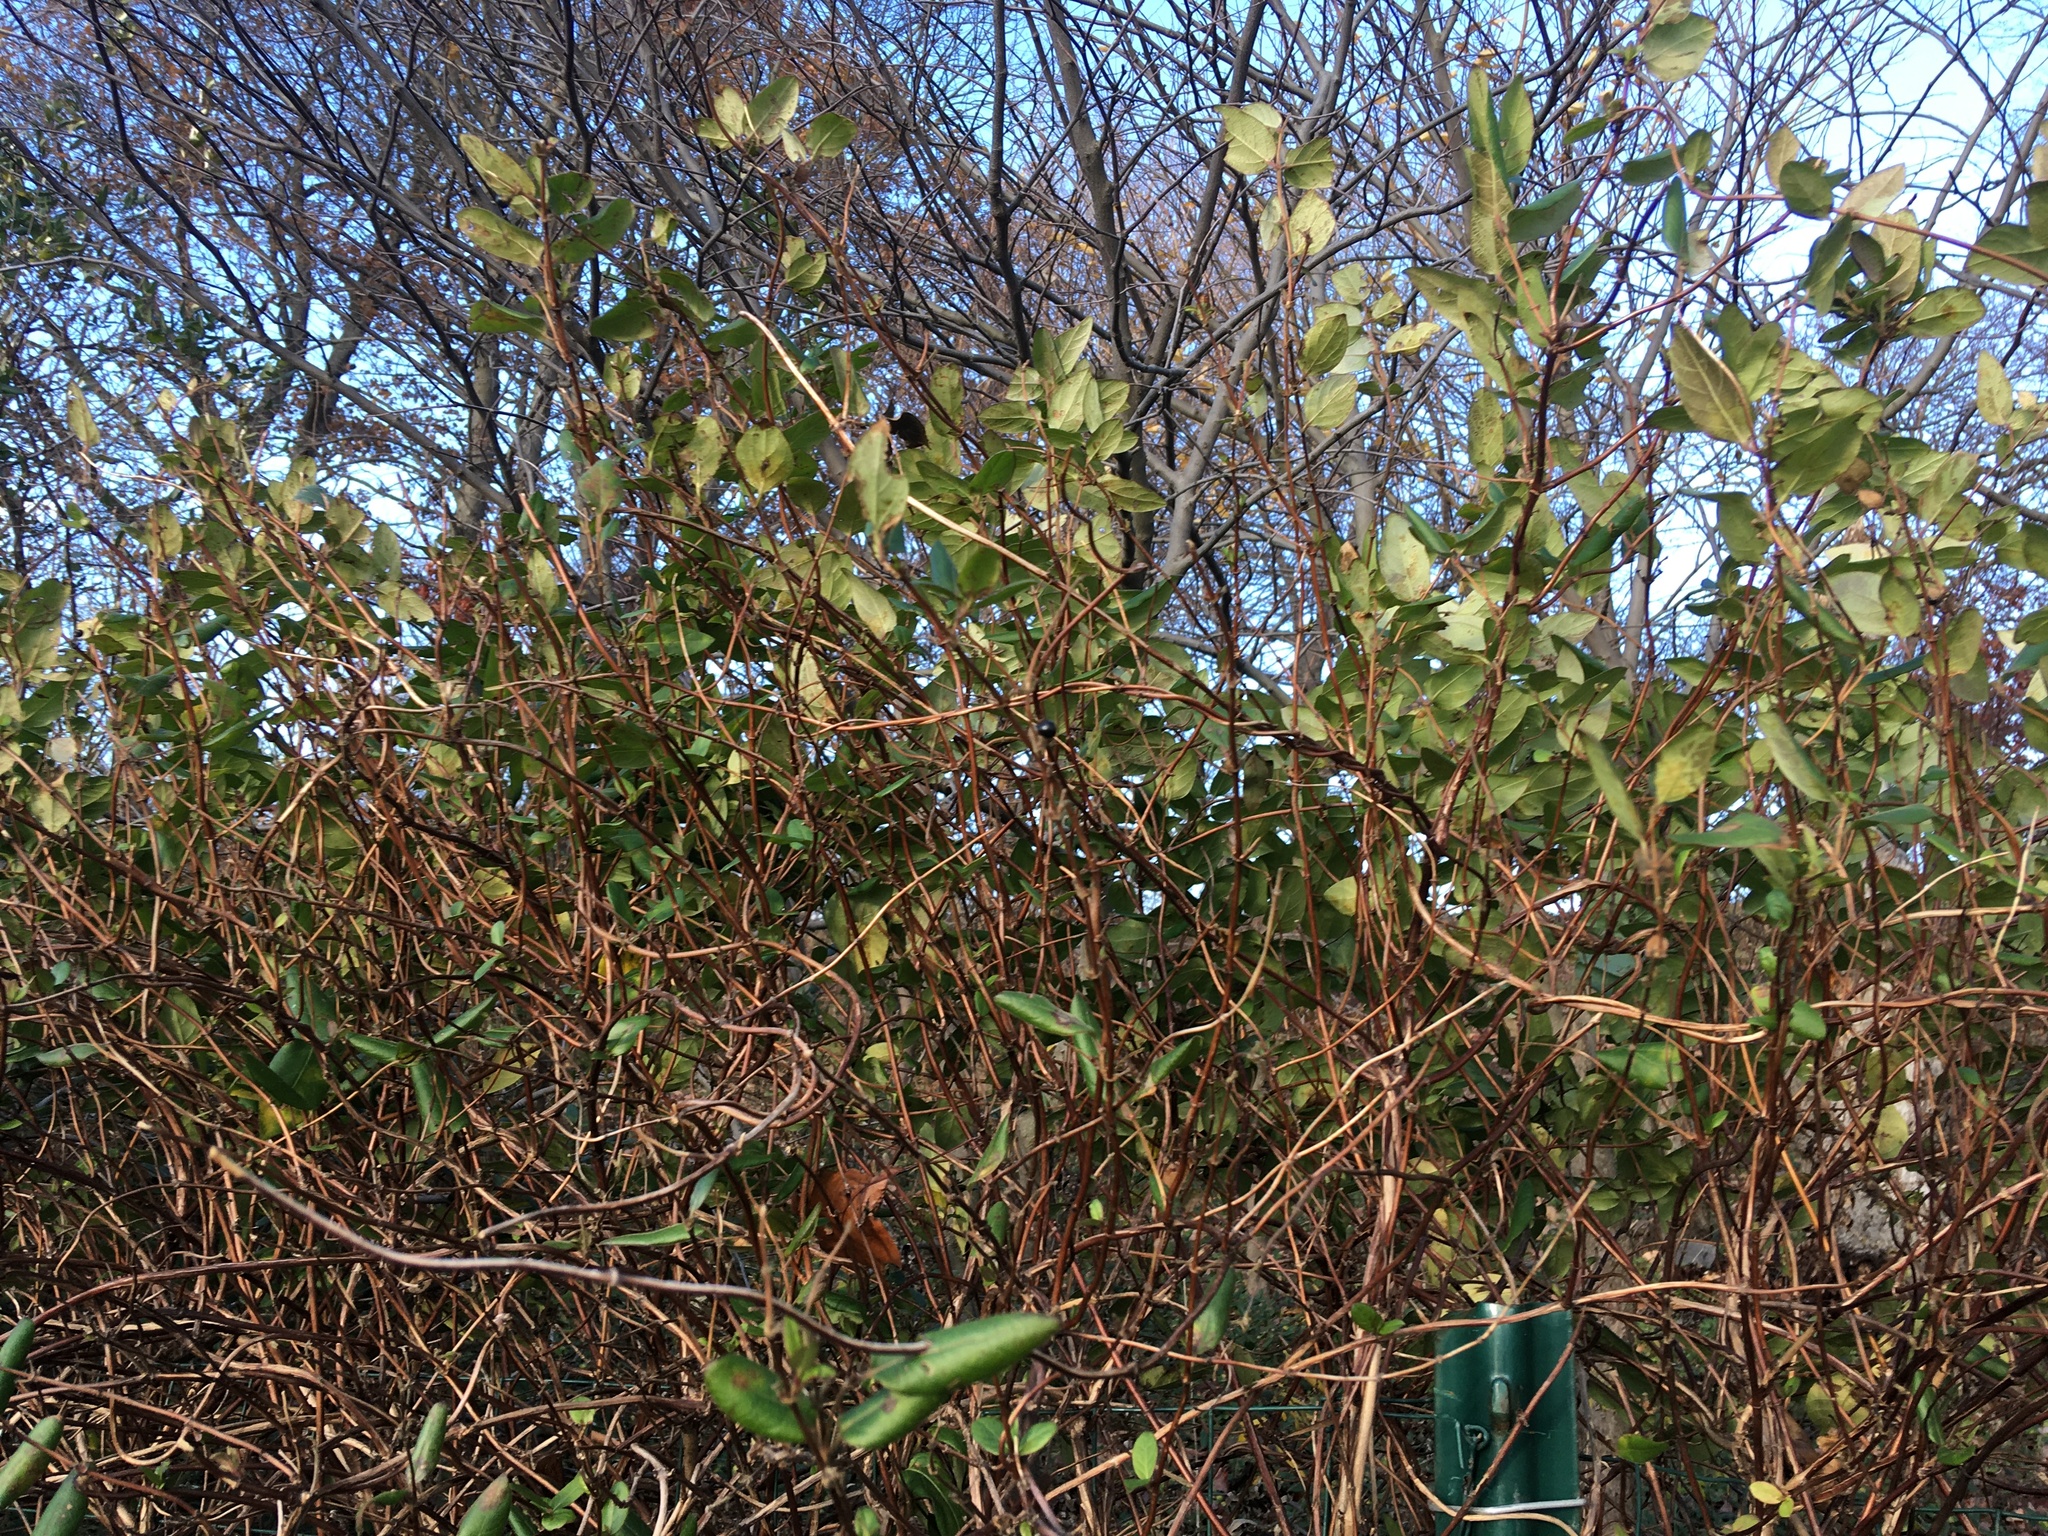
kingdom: Plantae
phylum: Tracheophyta
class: Magnoliopsida
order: Dipsacales
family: Caprifoliaceae
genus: Lonicera
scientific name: Lonicera japonica
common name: Japanese honeysuckle
